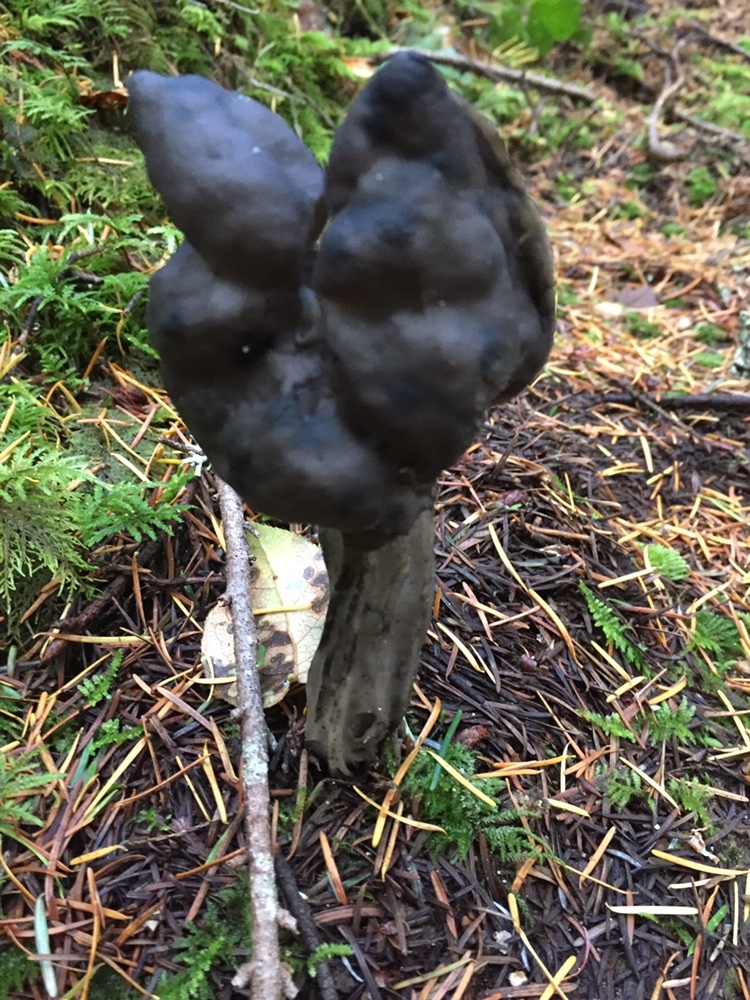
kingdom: Fungi
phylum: Ascomycota
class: Pezizomycetes
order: Pezizales
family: Helvellaceae
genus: Helvella
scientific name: Helvella vespertina
